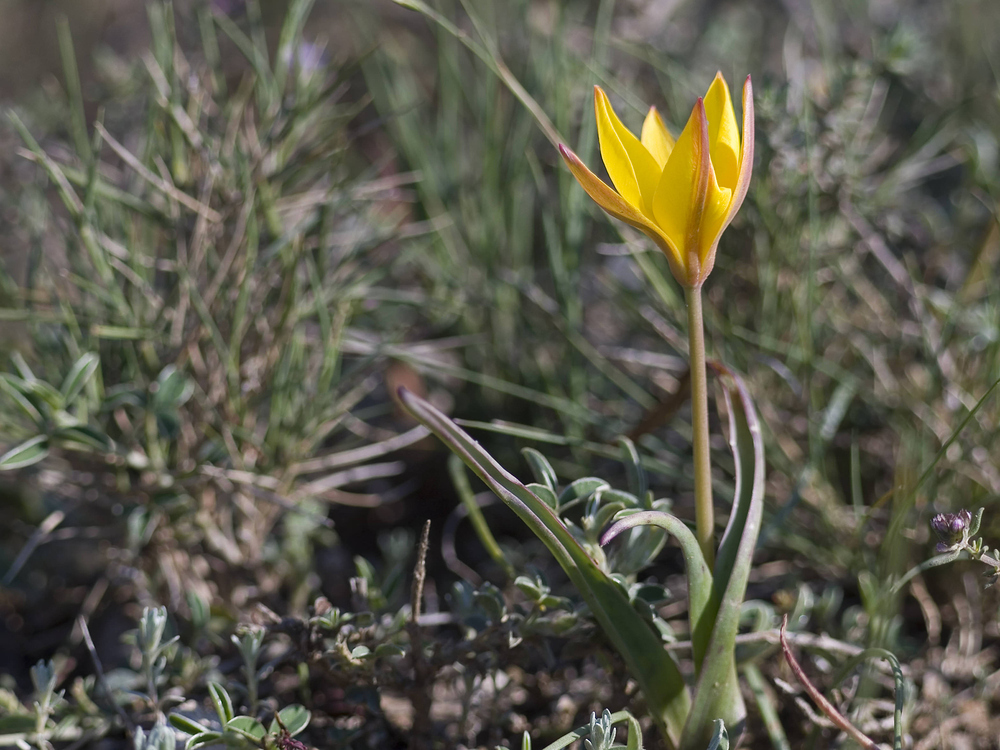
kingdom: Plantae
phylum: Tracheophyta
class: Liliopsida
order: Liliales
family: Liliaceae
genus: Tulipa
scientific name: Tulipa sylvestris
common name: Wild tulip
